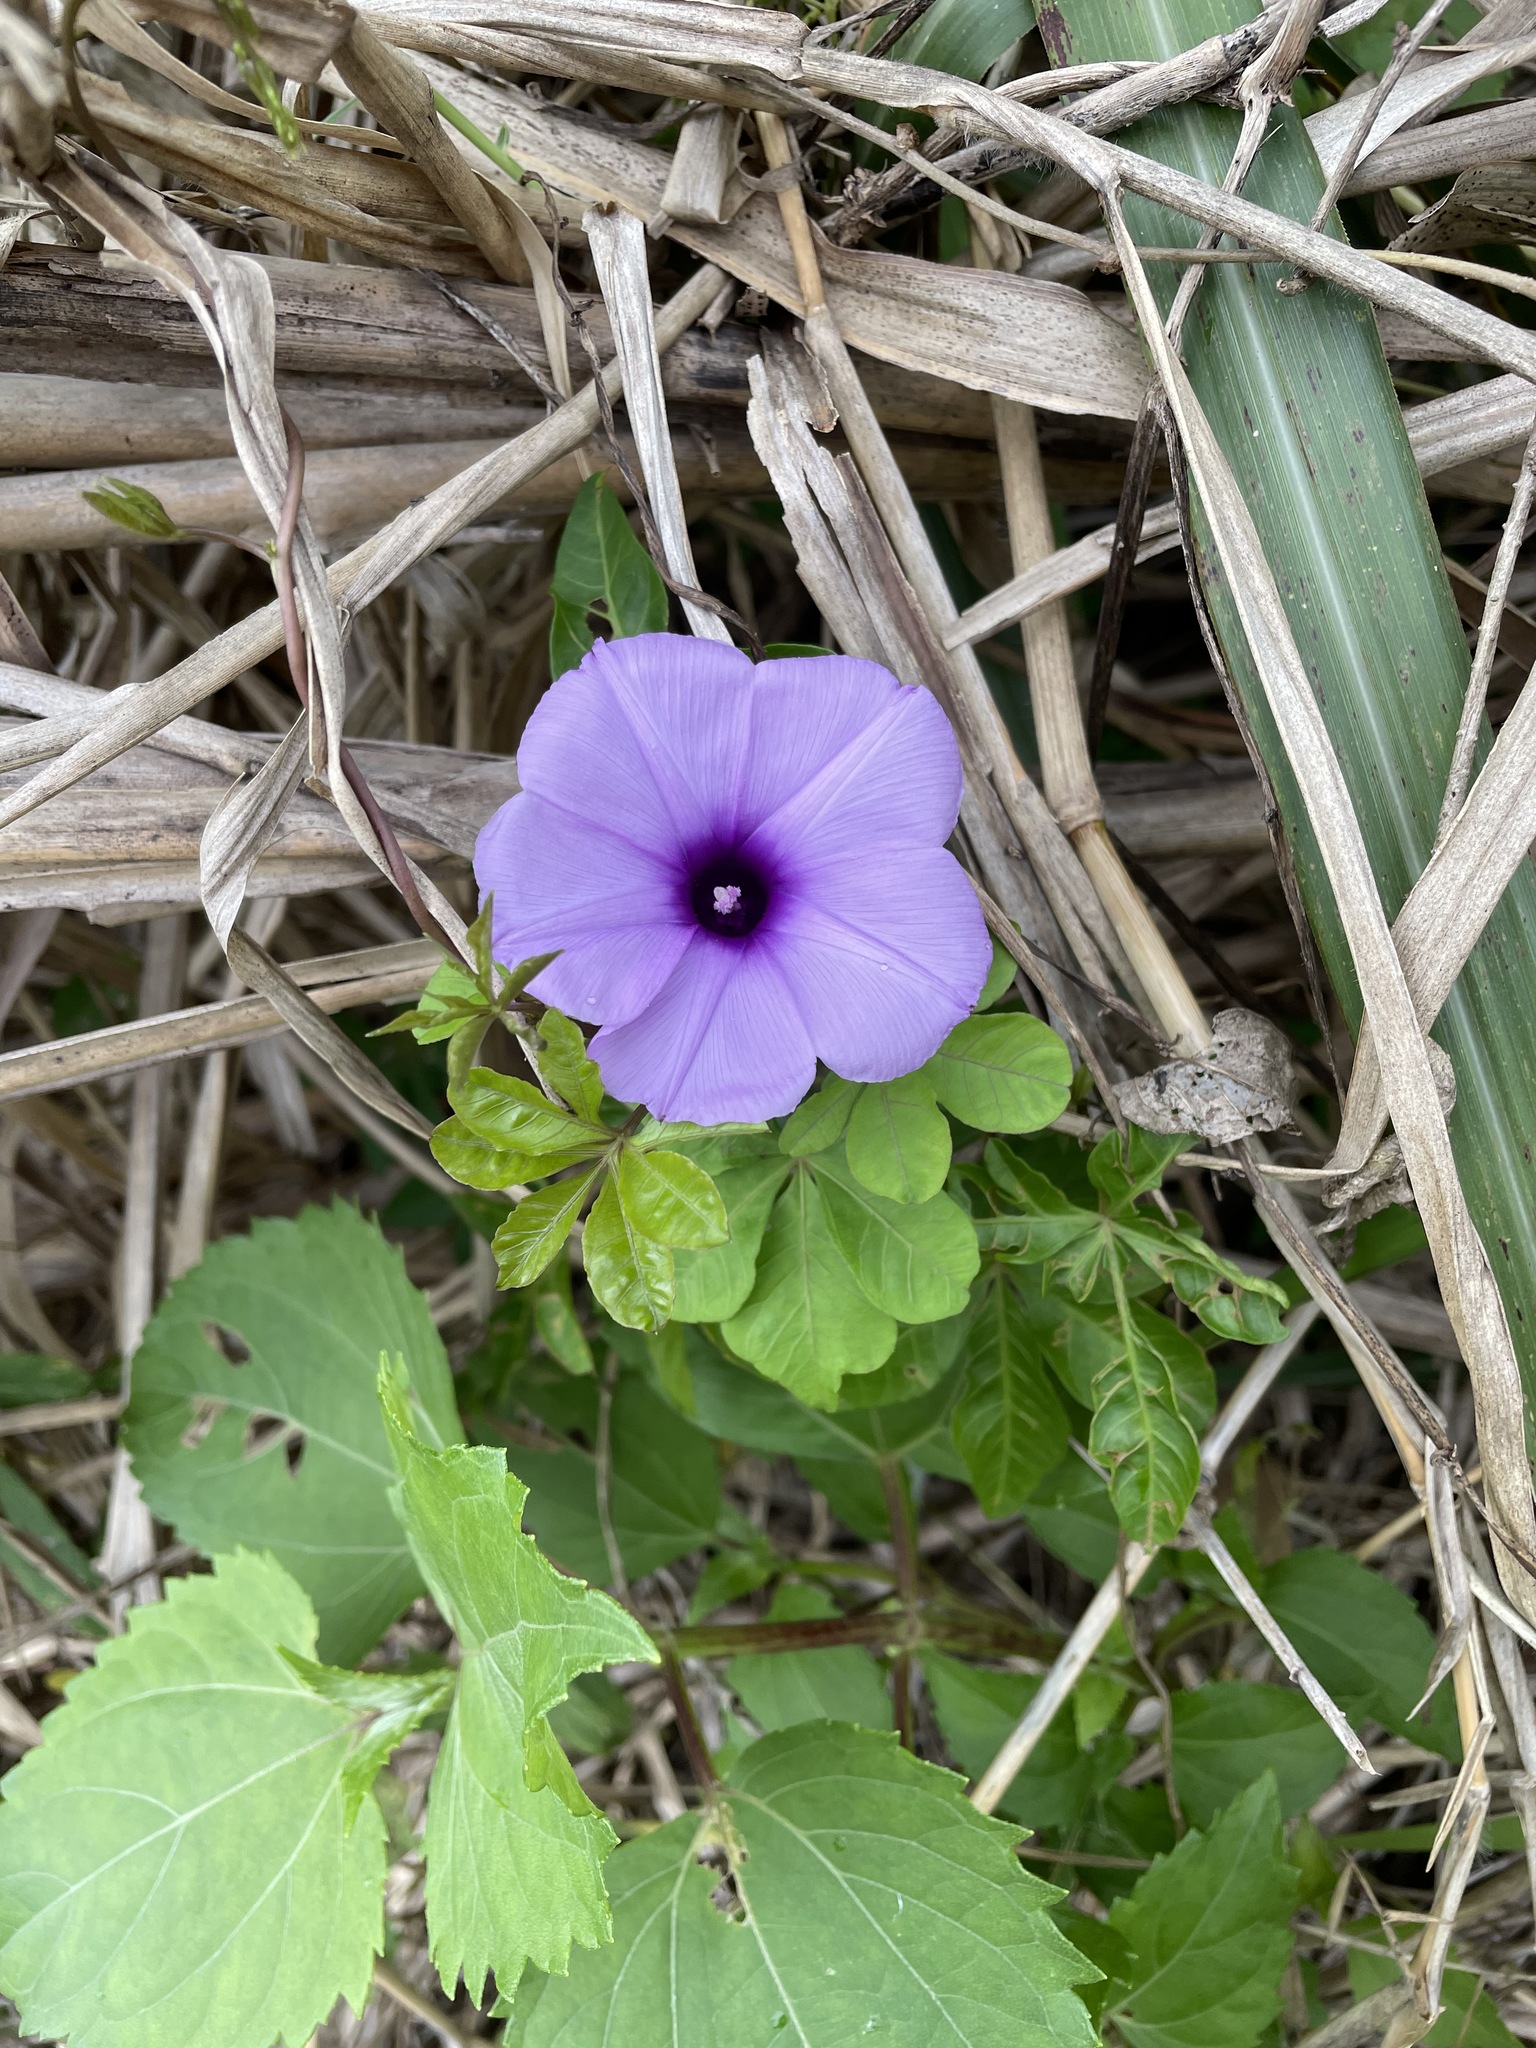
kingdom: Plantae
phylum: Tracheophyta
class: Magnoliopsida
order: Solanales
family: Convolvulaceae
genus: Ipomoea
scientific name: Ipomoea cairica
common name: Mile a minute vine
